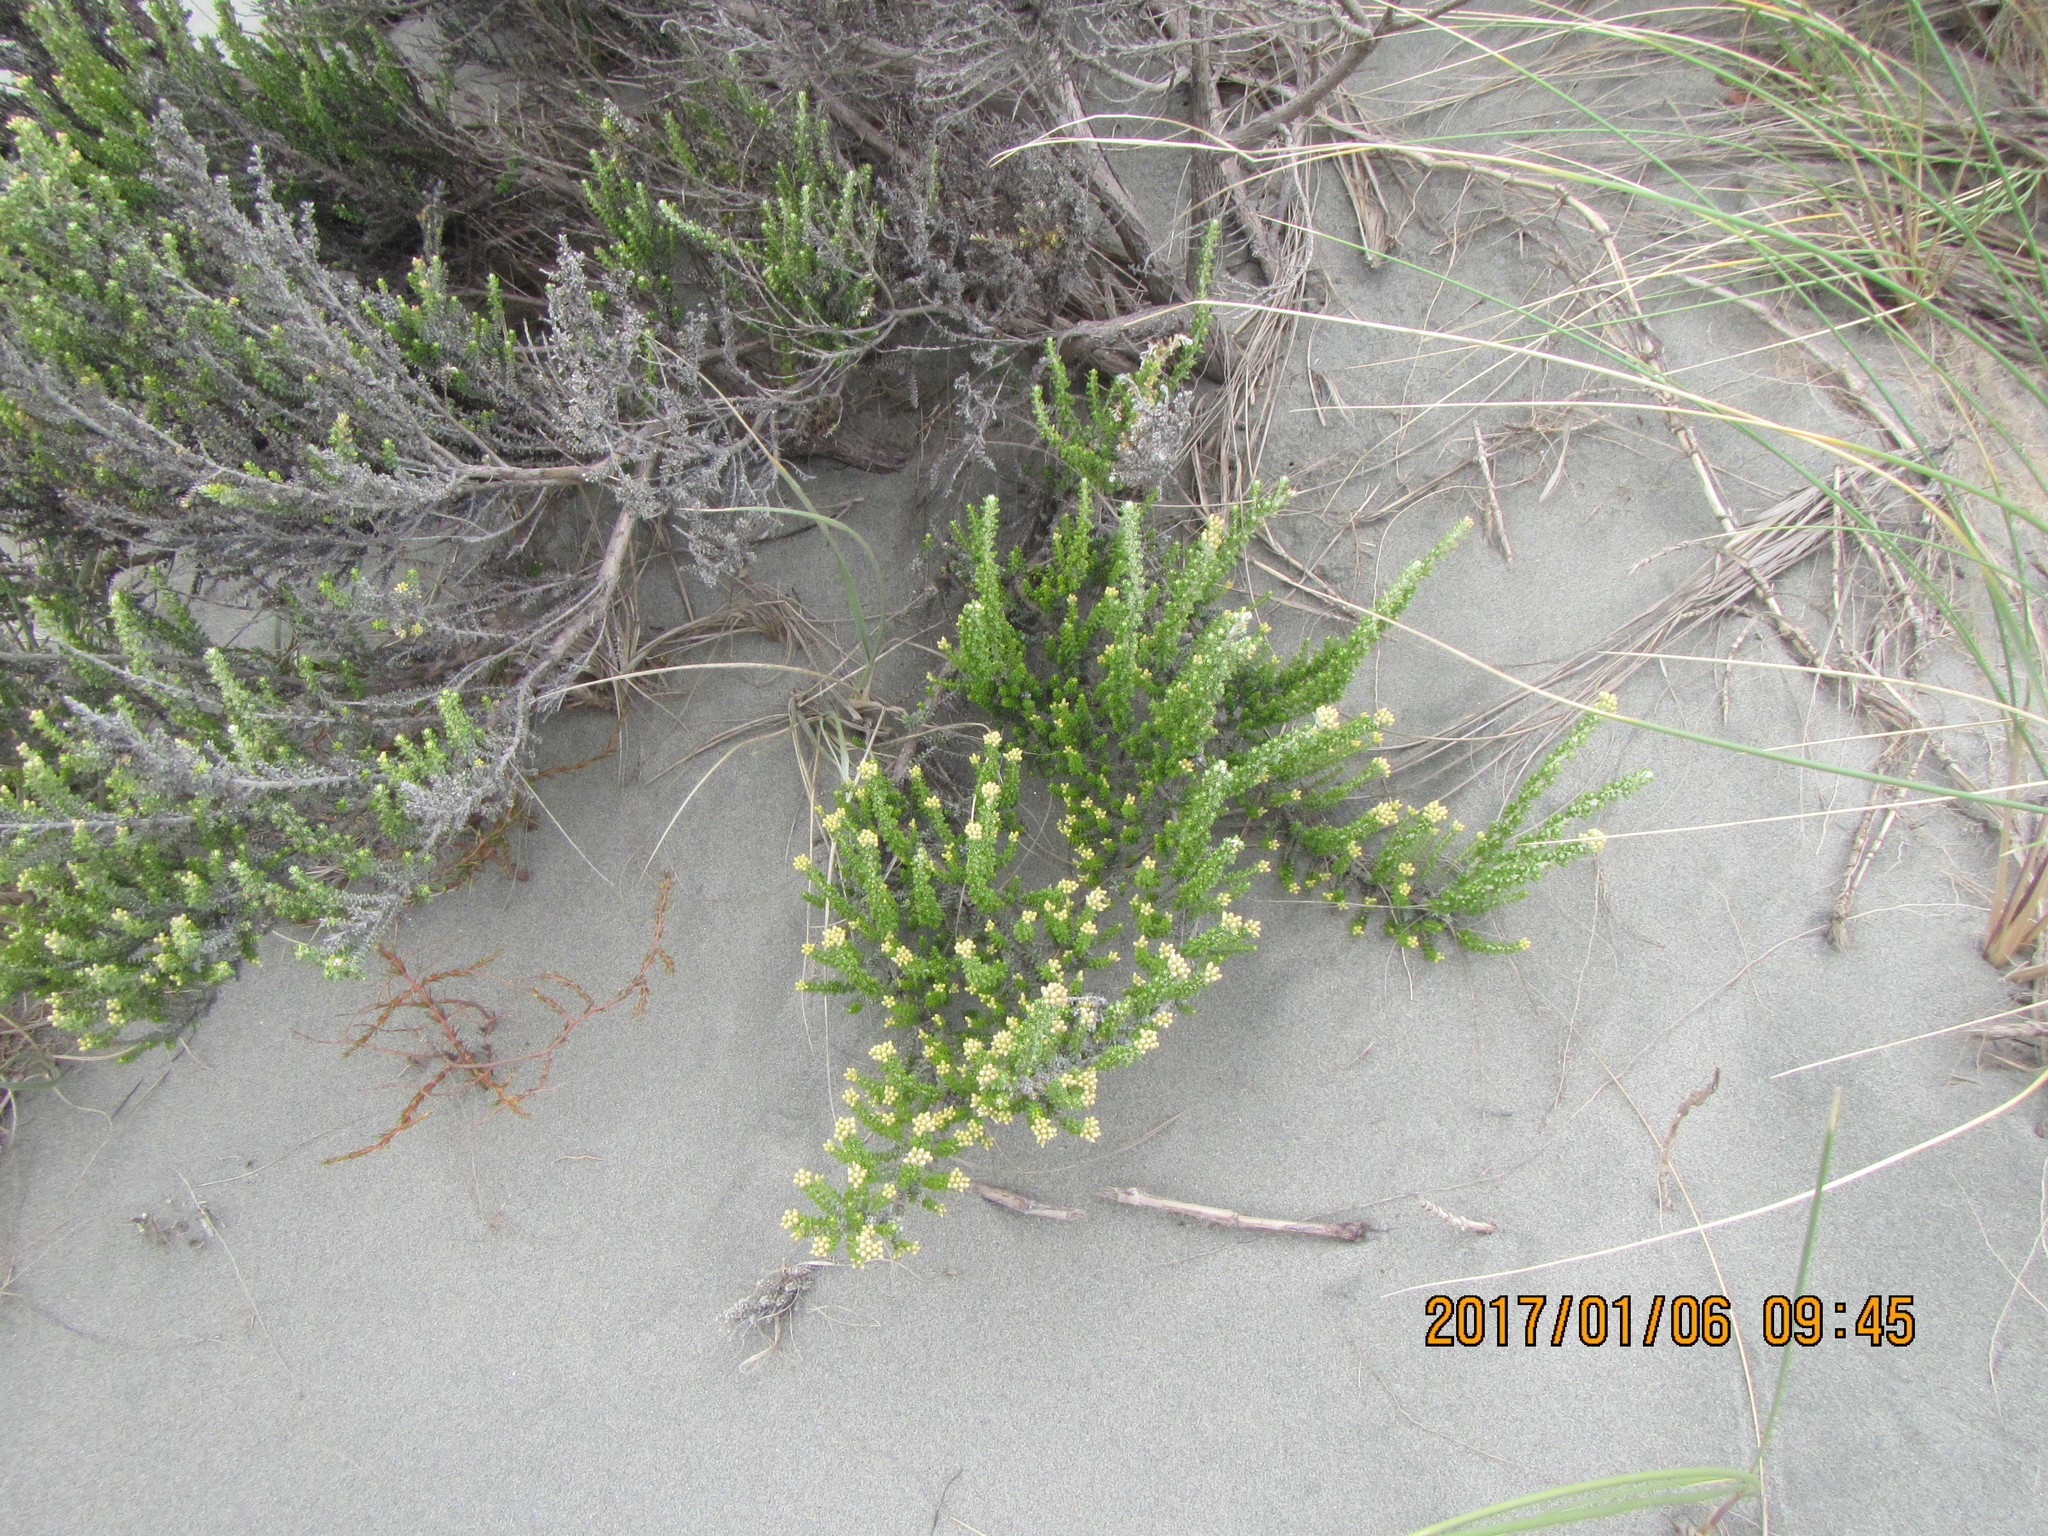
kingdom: Plantae
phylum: Tracheophyta
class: Magnoliopsida
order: Asterales
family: Asteraceae
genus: Ozothamnus
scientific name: Ozothamnus leptophyllus
